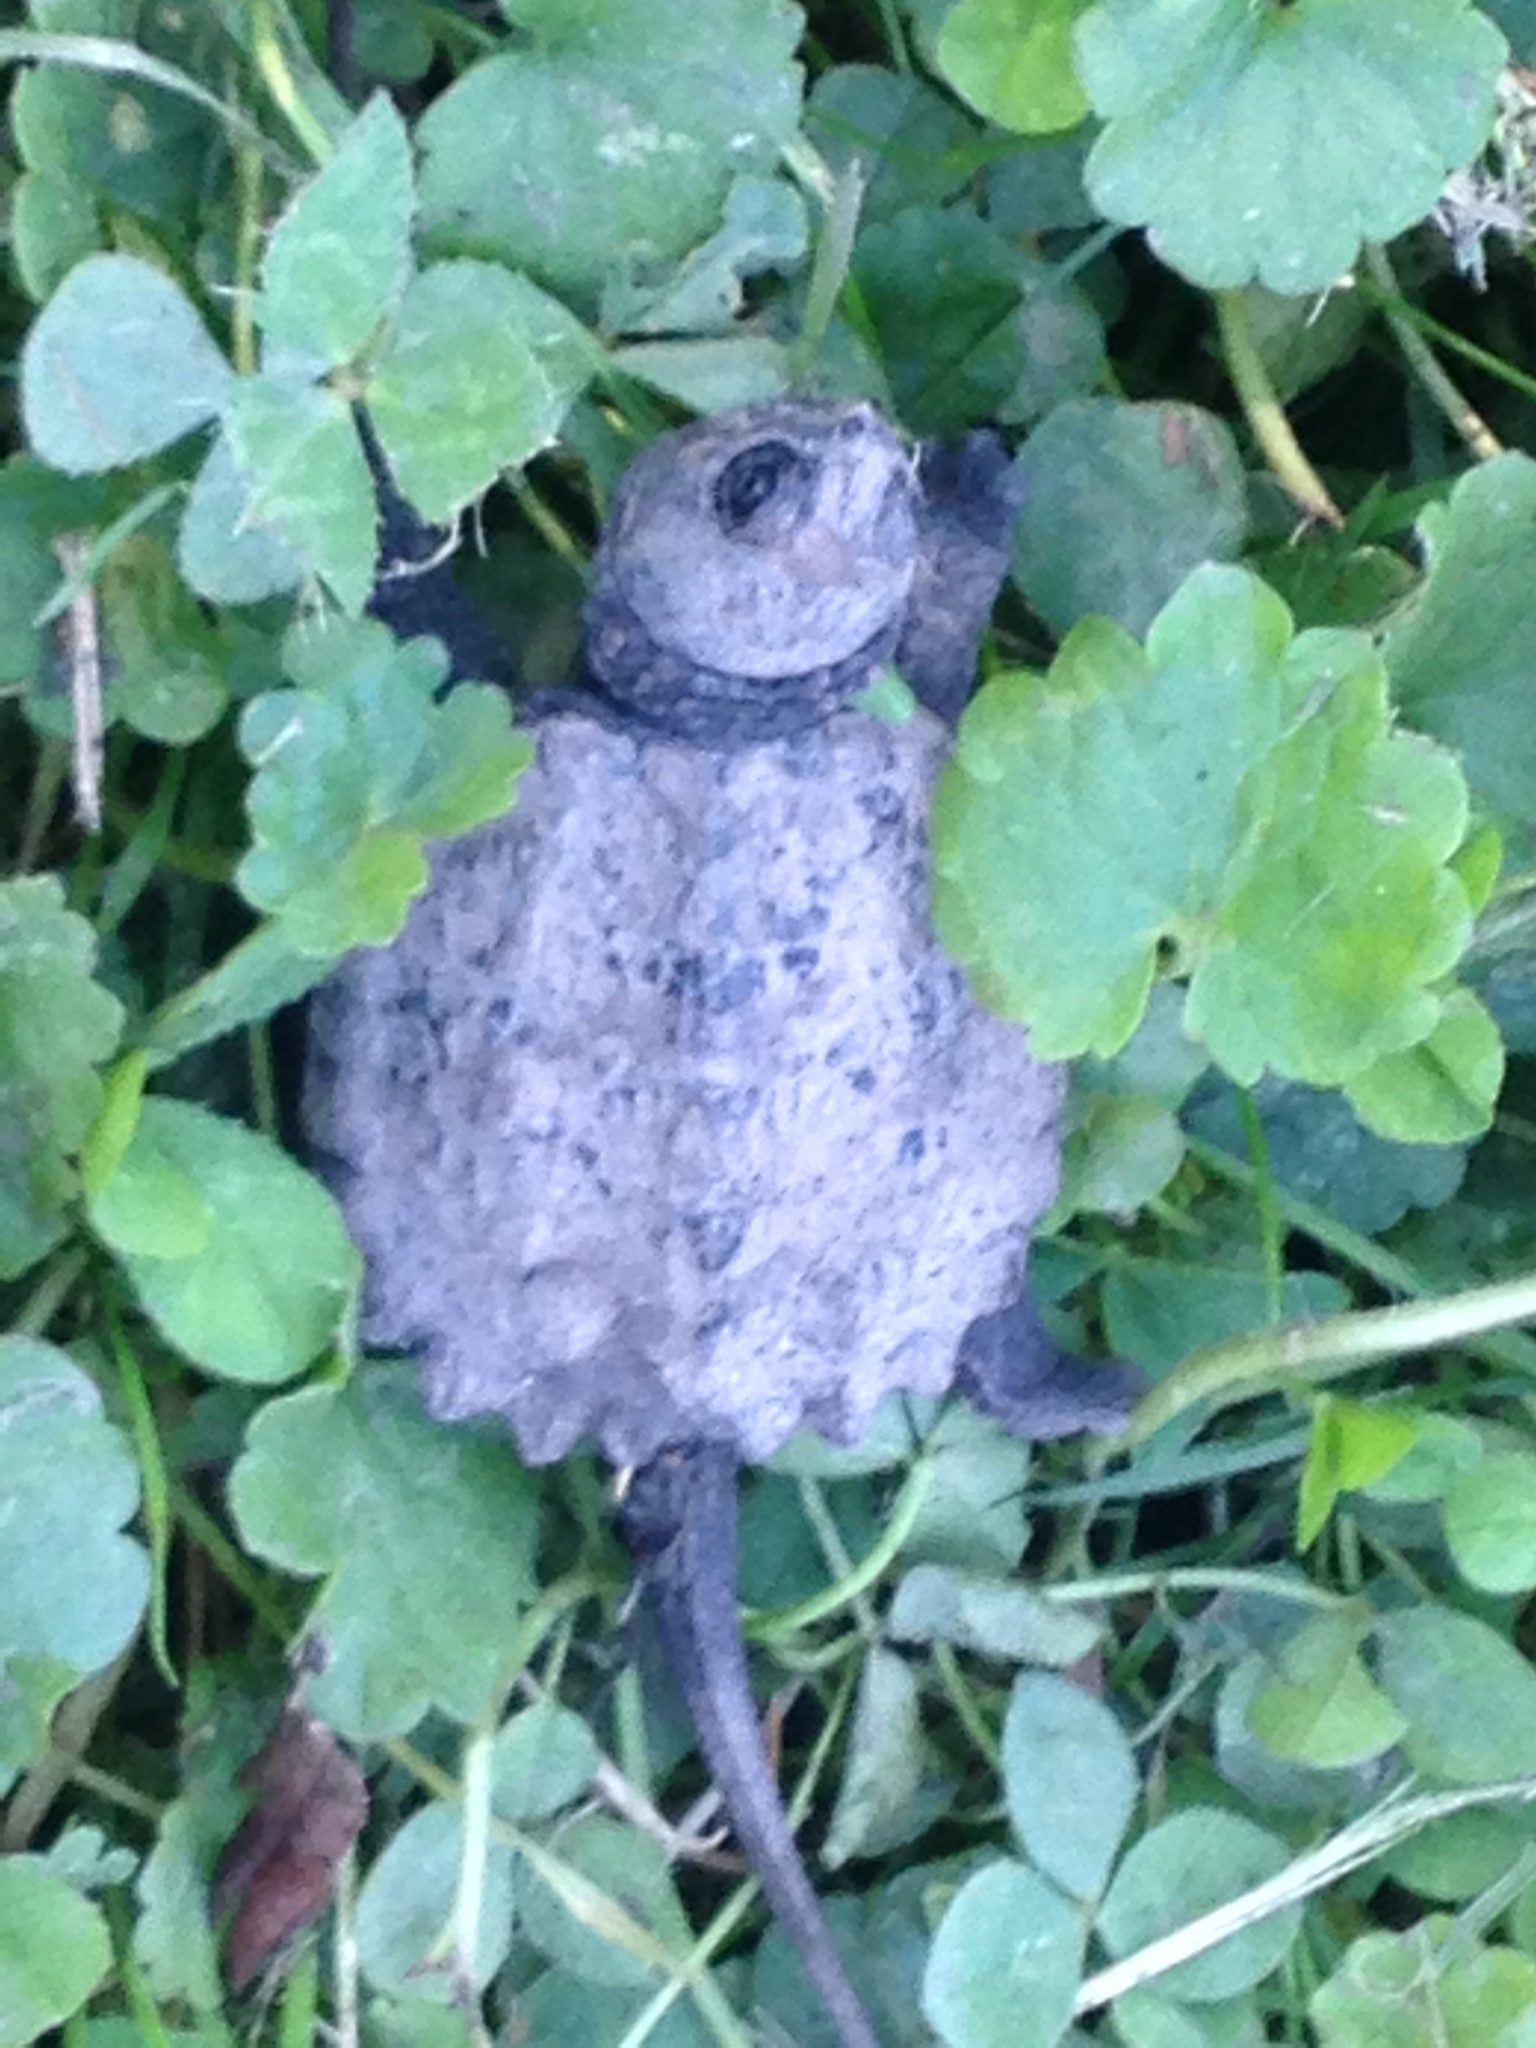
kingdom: Animalia
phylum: Chordata
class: Testudines
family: Chelydridae
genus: Chelydra
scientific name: Chelydra serpentina
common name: Common snapping turtle
